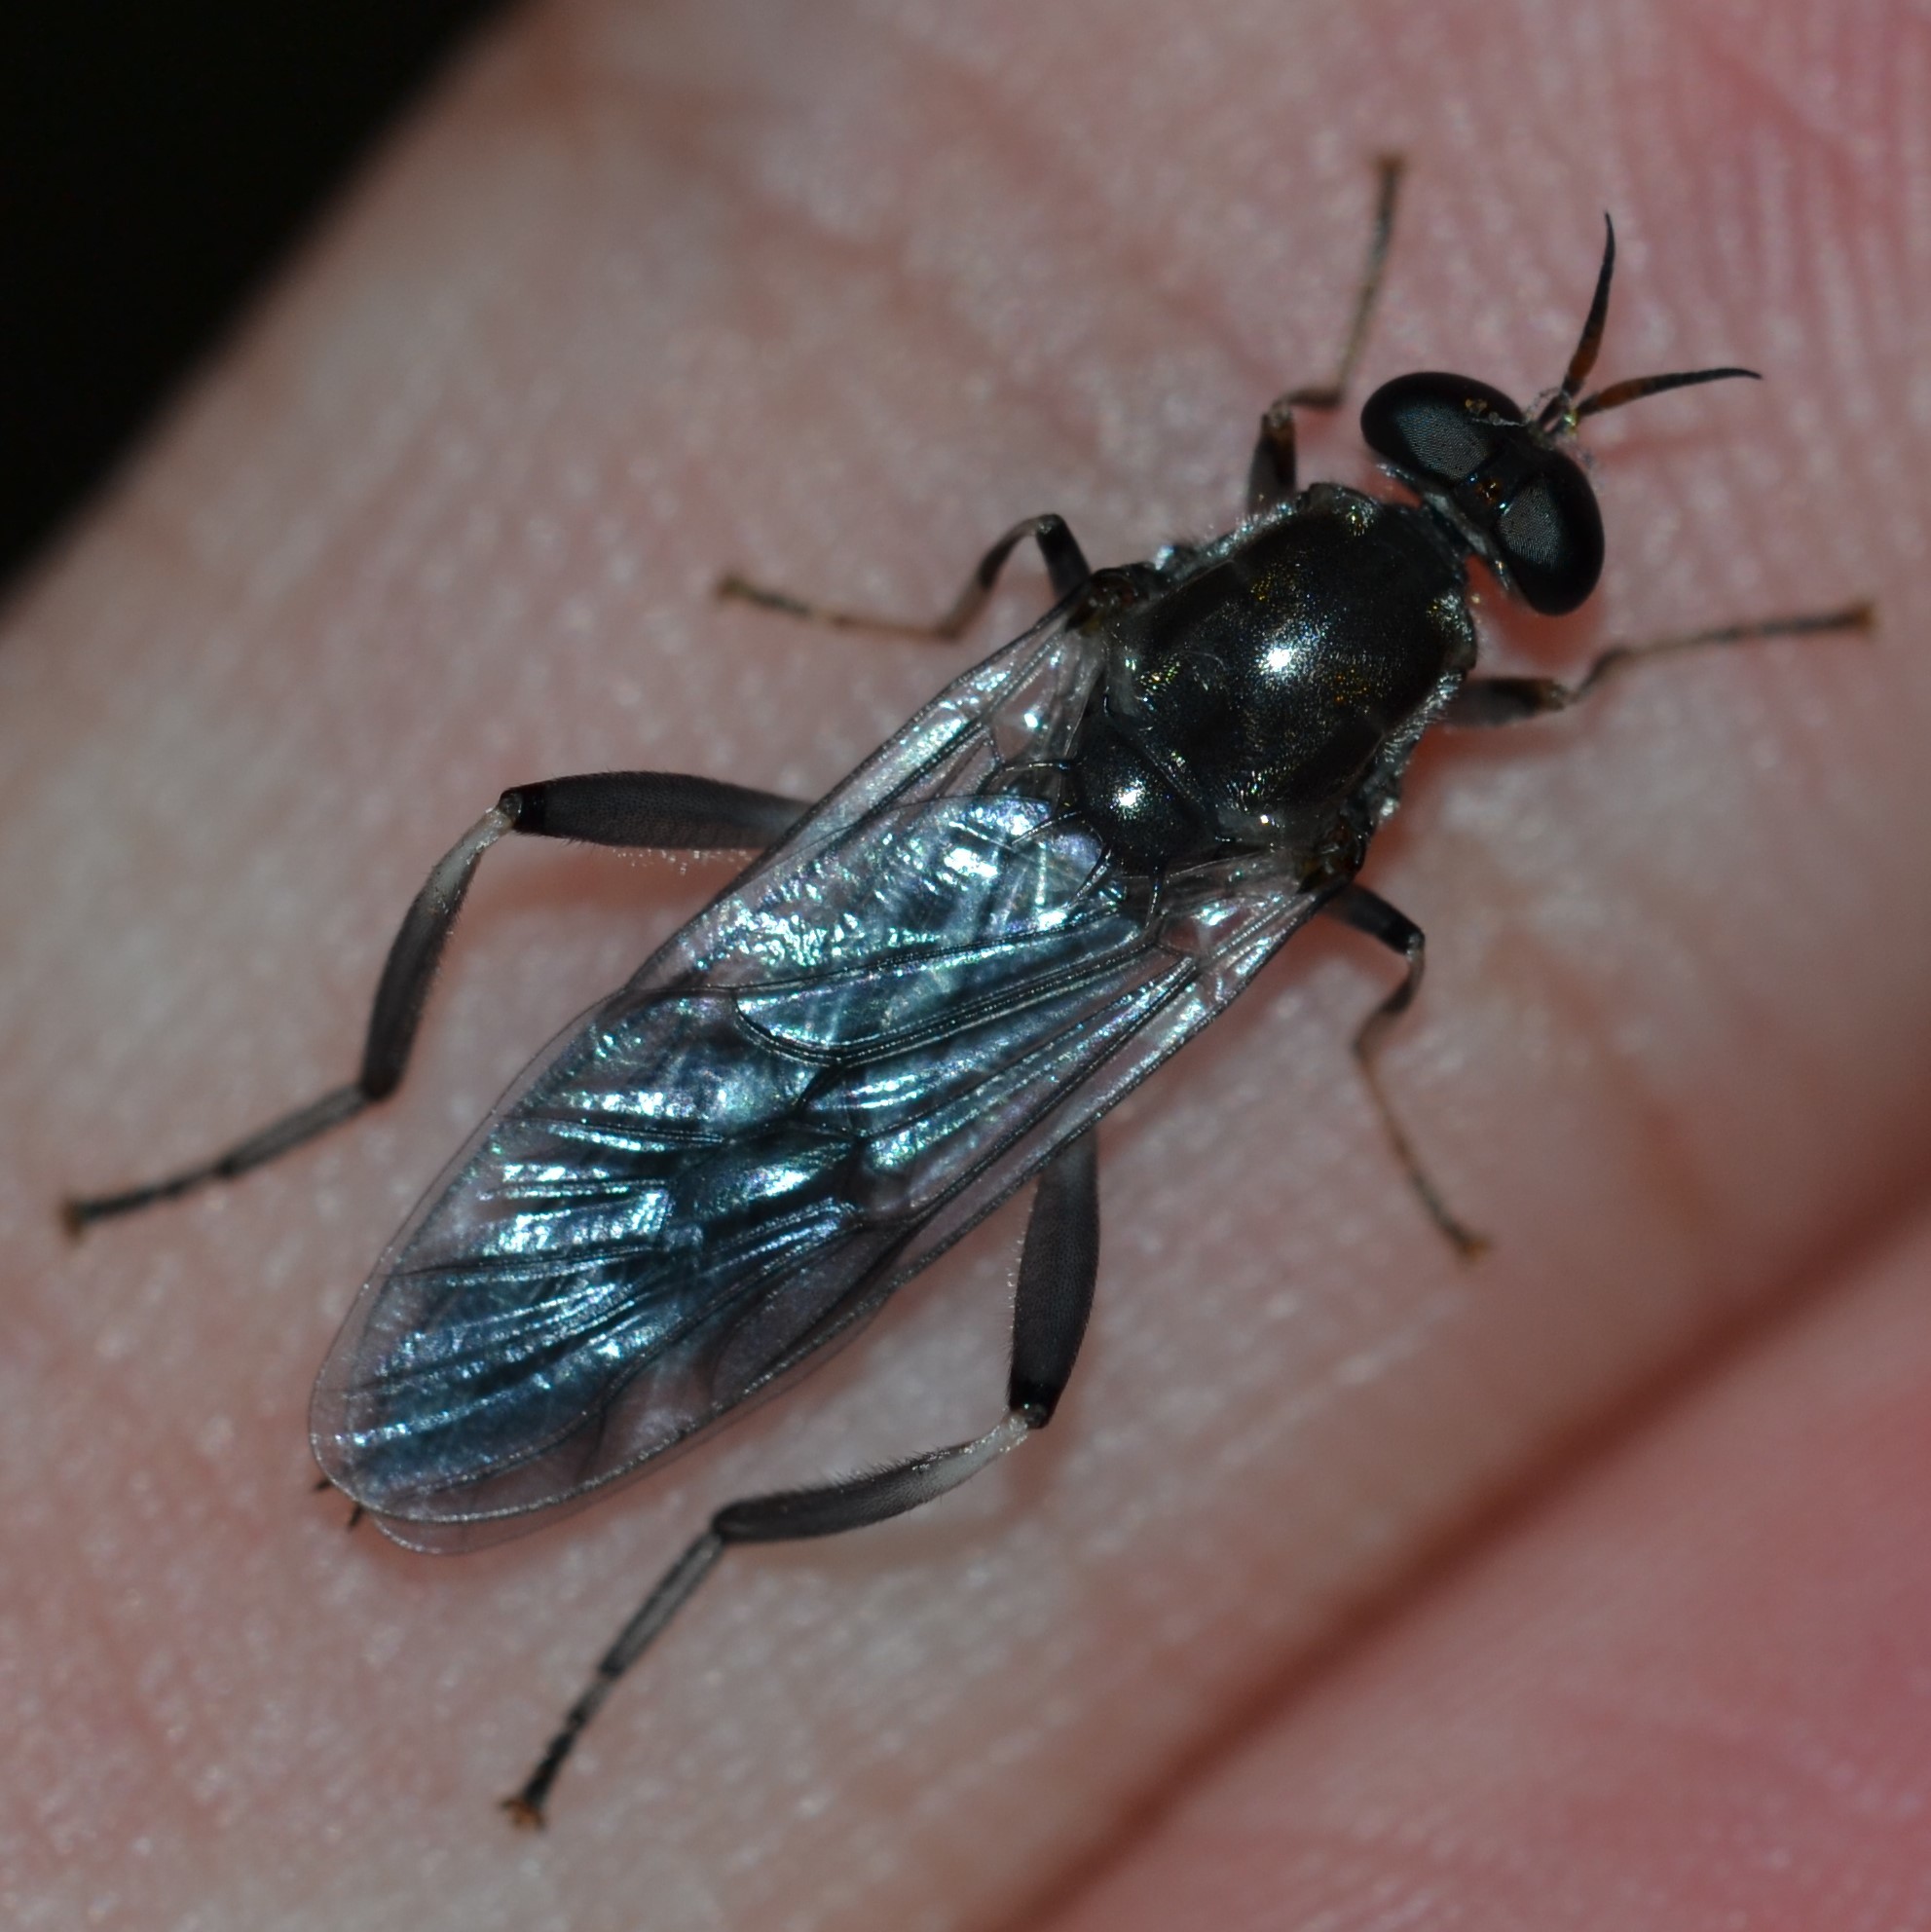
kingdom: Animalia
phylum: Arthropoda
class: Insecta
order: Diptera
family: Stratiomyidae
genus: Exaireta
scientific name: Exaireta spinigera
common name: Blue soldier fly
